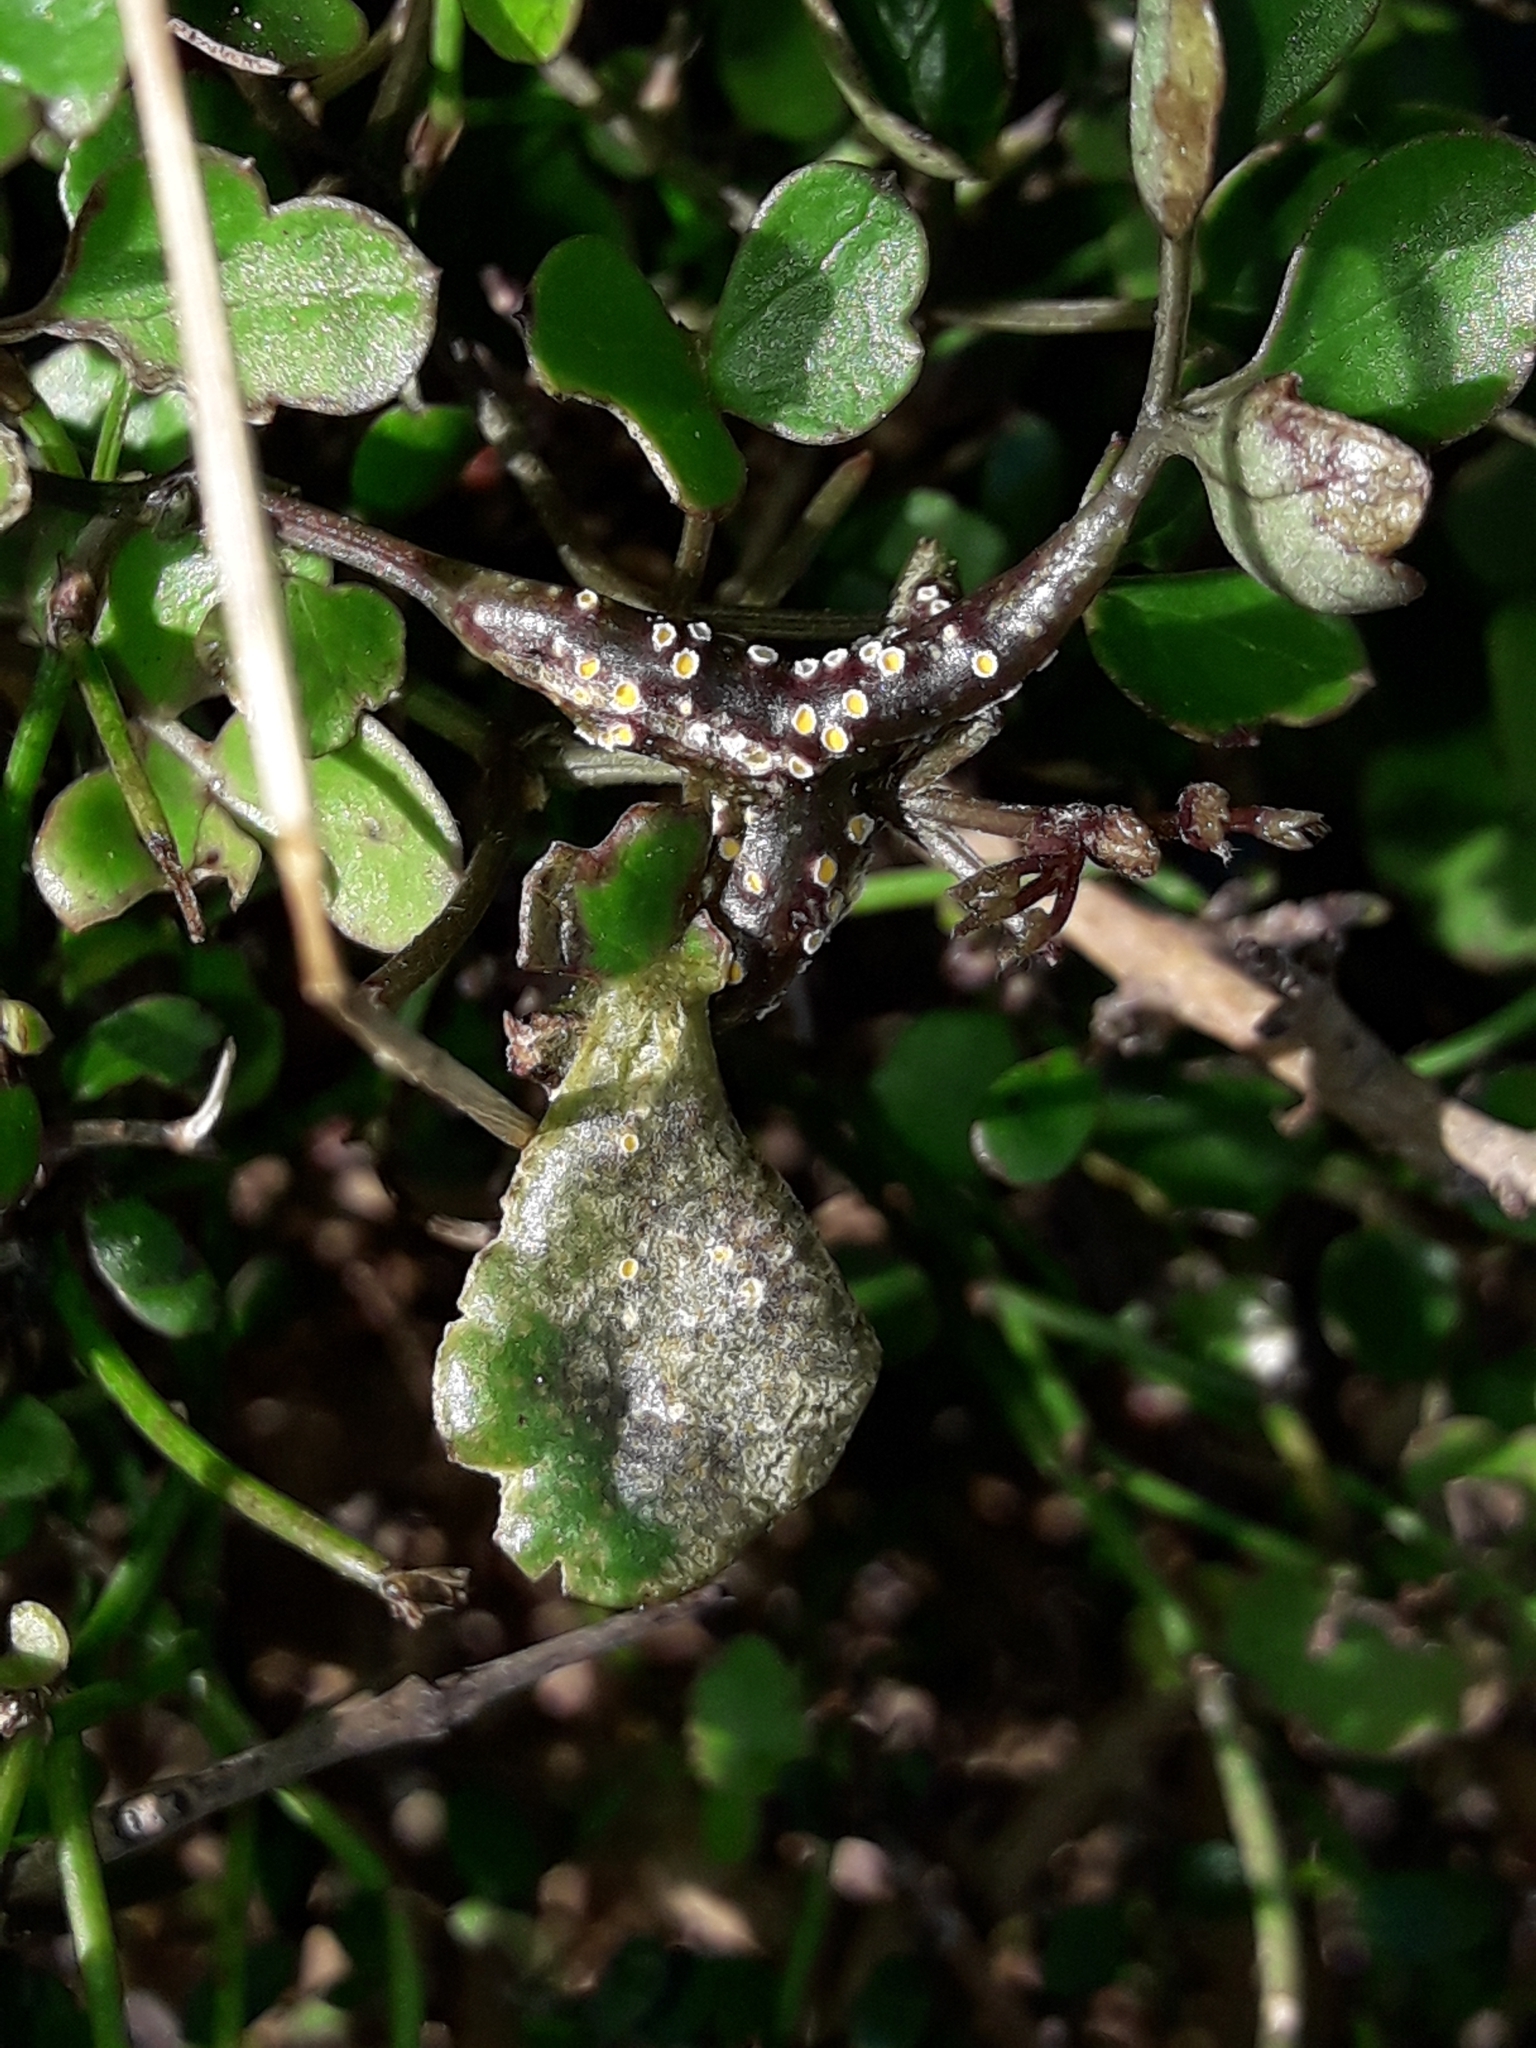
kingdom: Fungi
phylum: Basidiomycota
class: Pucciniomycetes
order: Pucciniales
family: Pucciniaceae
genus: Puccinia
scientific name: Puccinia otagensis
